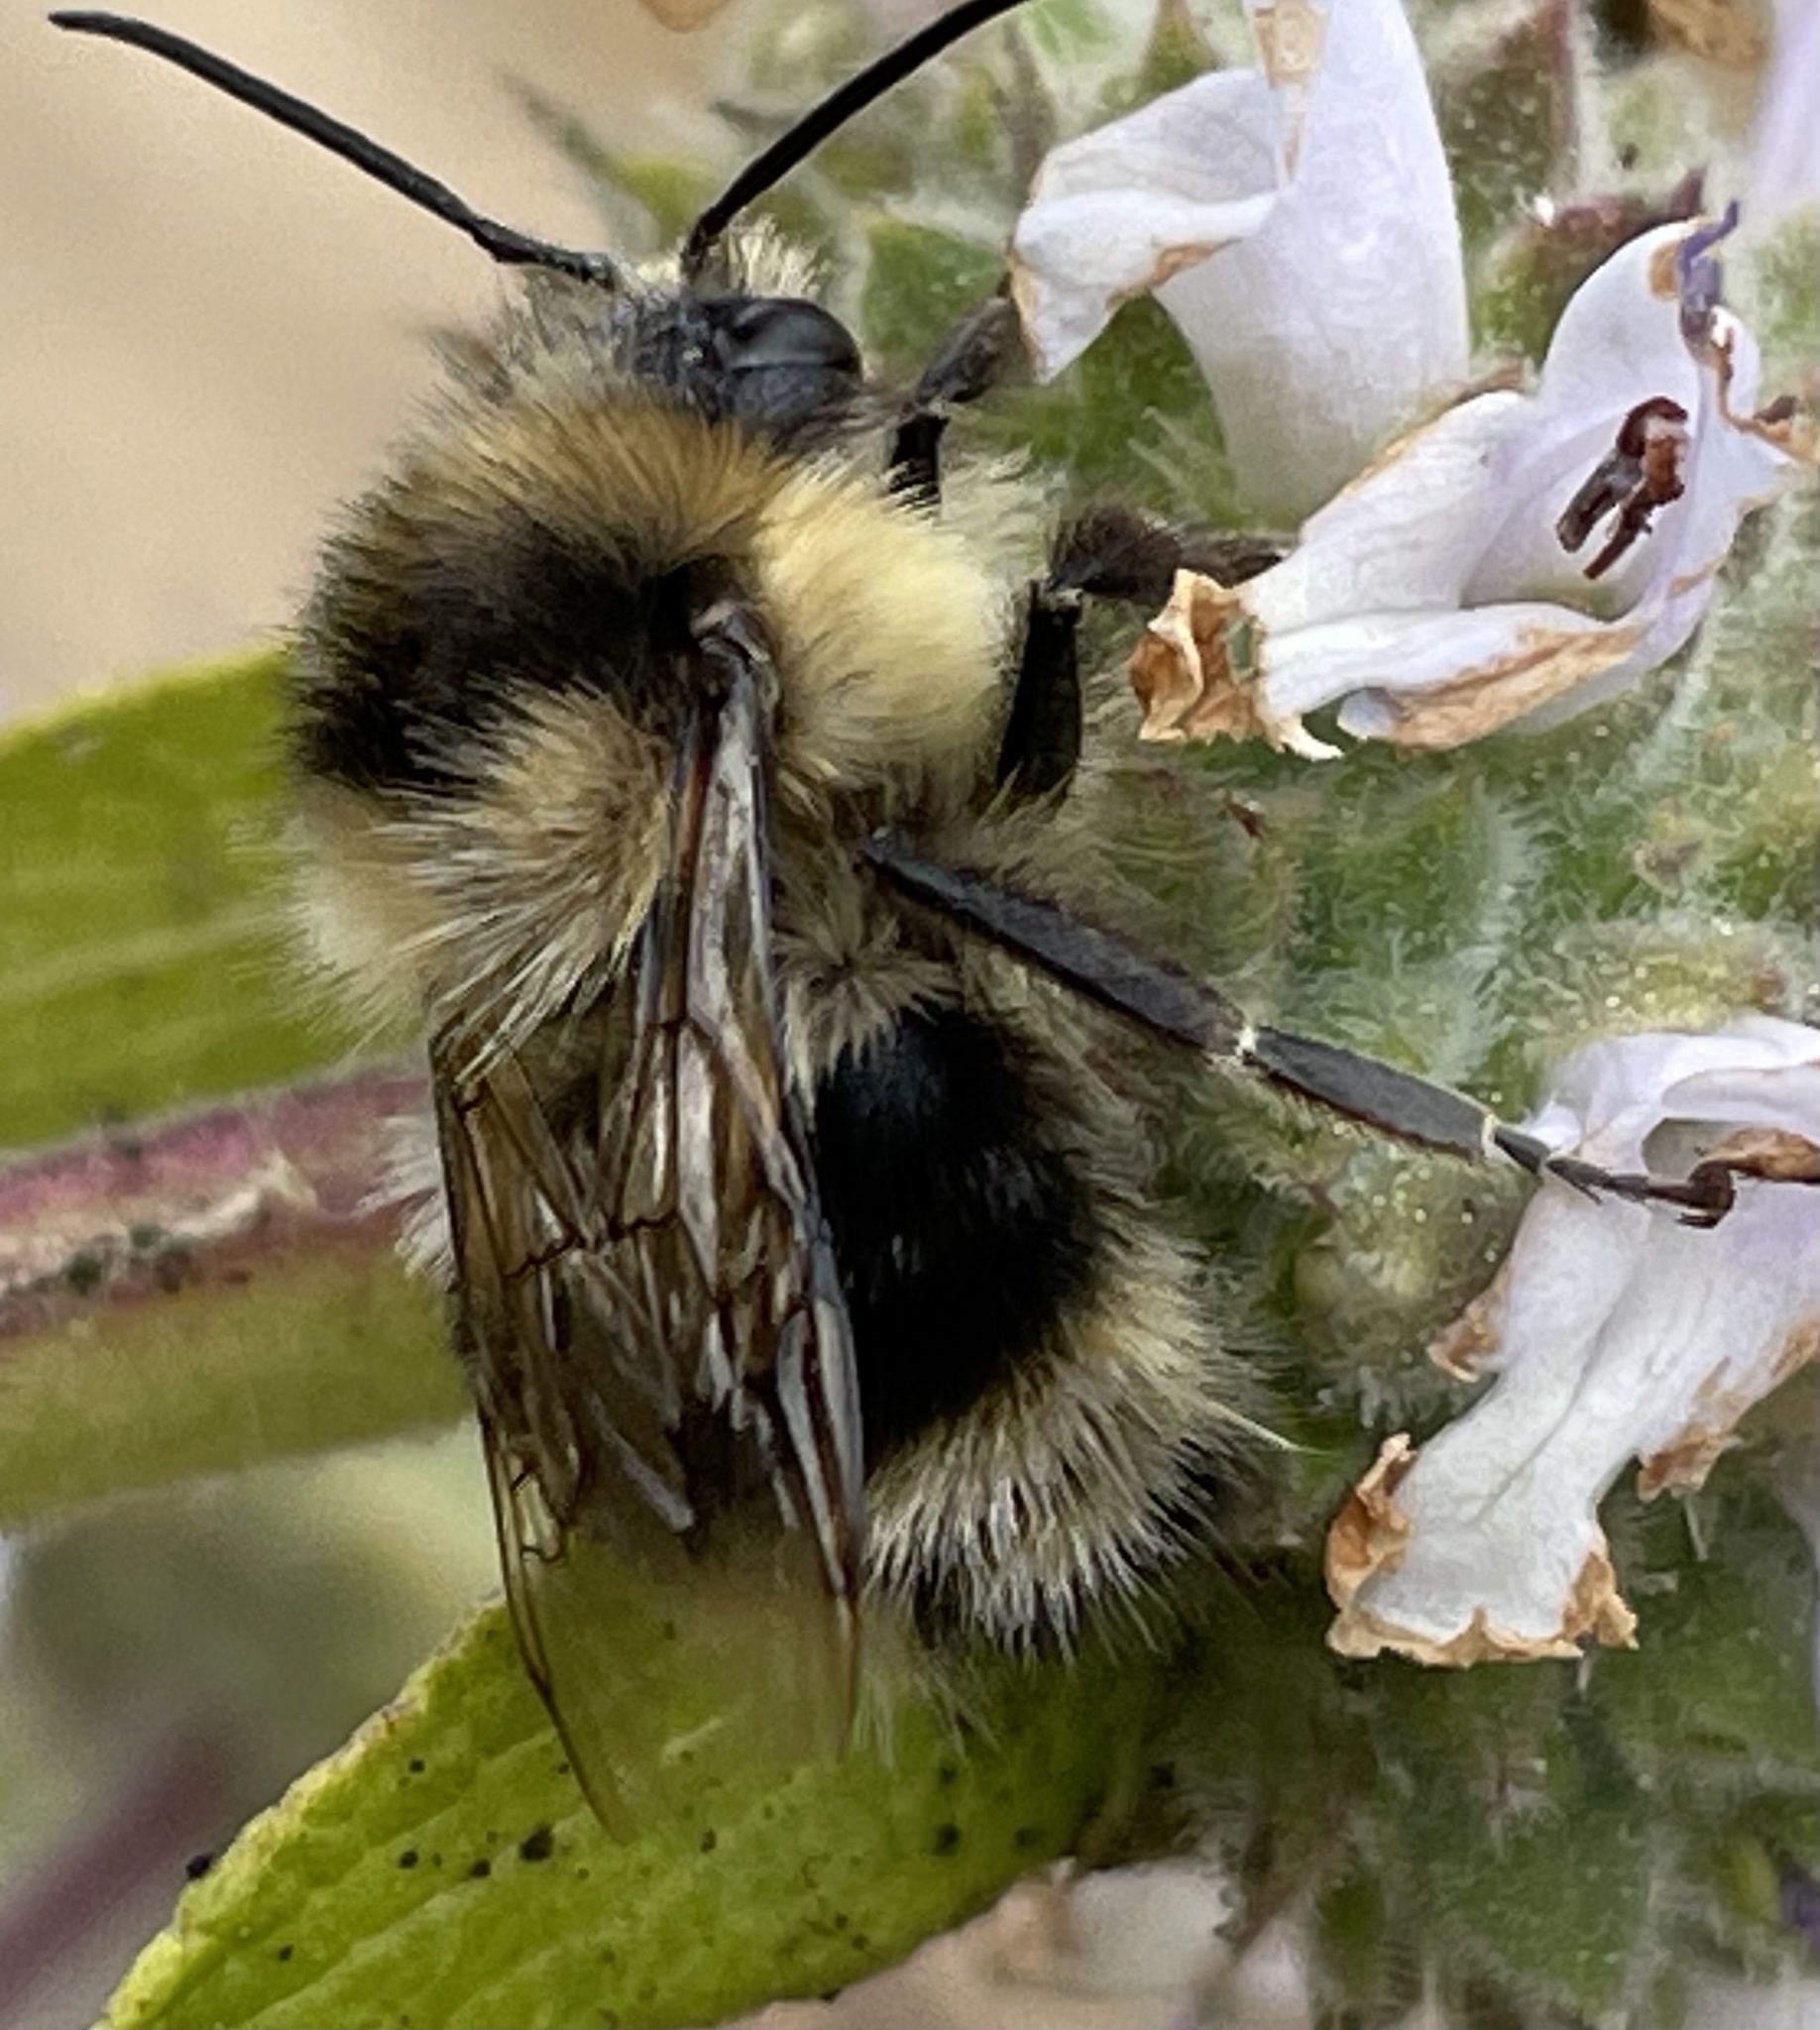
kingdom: Animalia
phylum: Arthropoda
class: Insecta
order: Hymenoptera
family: Apidae
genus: Bombus
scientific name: Bombus melanopygus
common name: Black tail bumble bee
